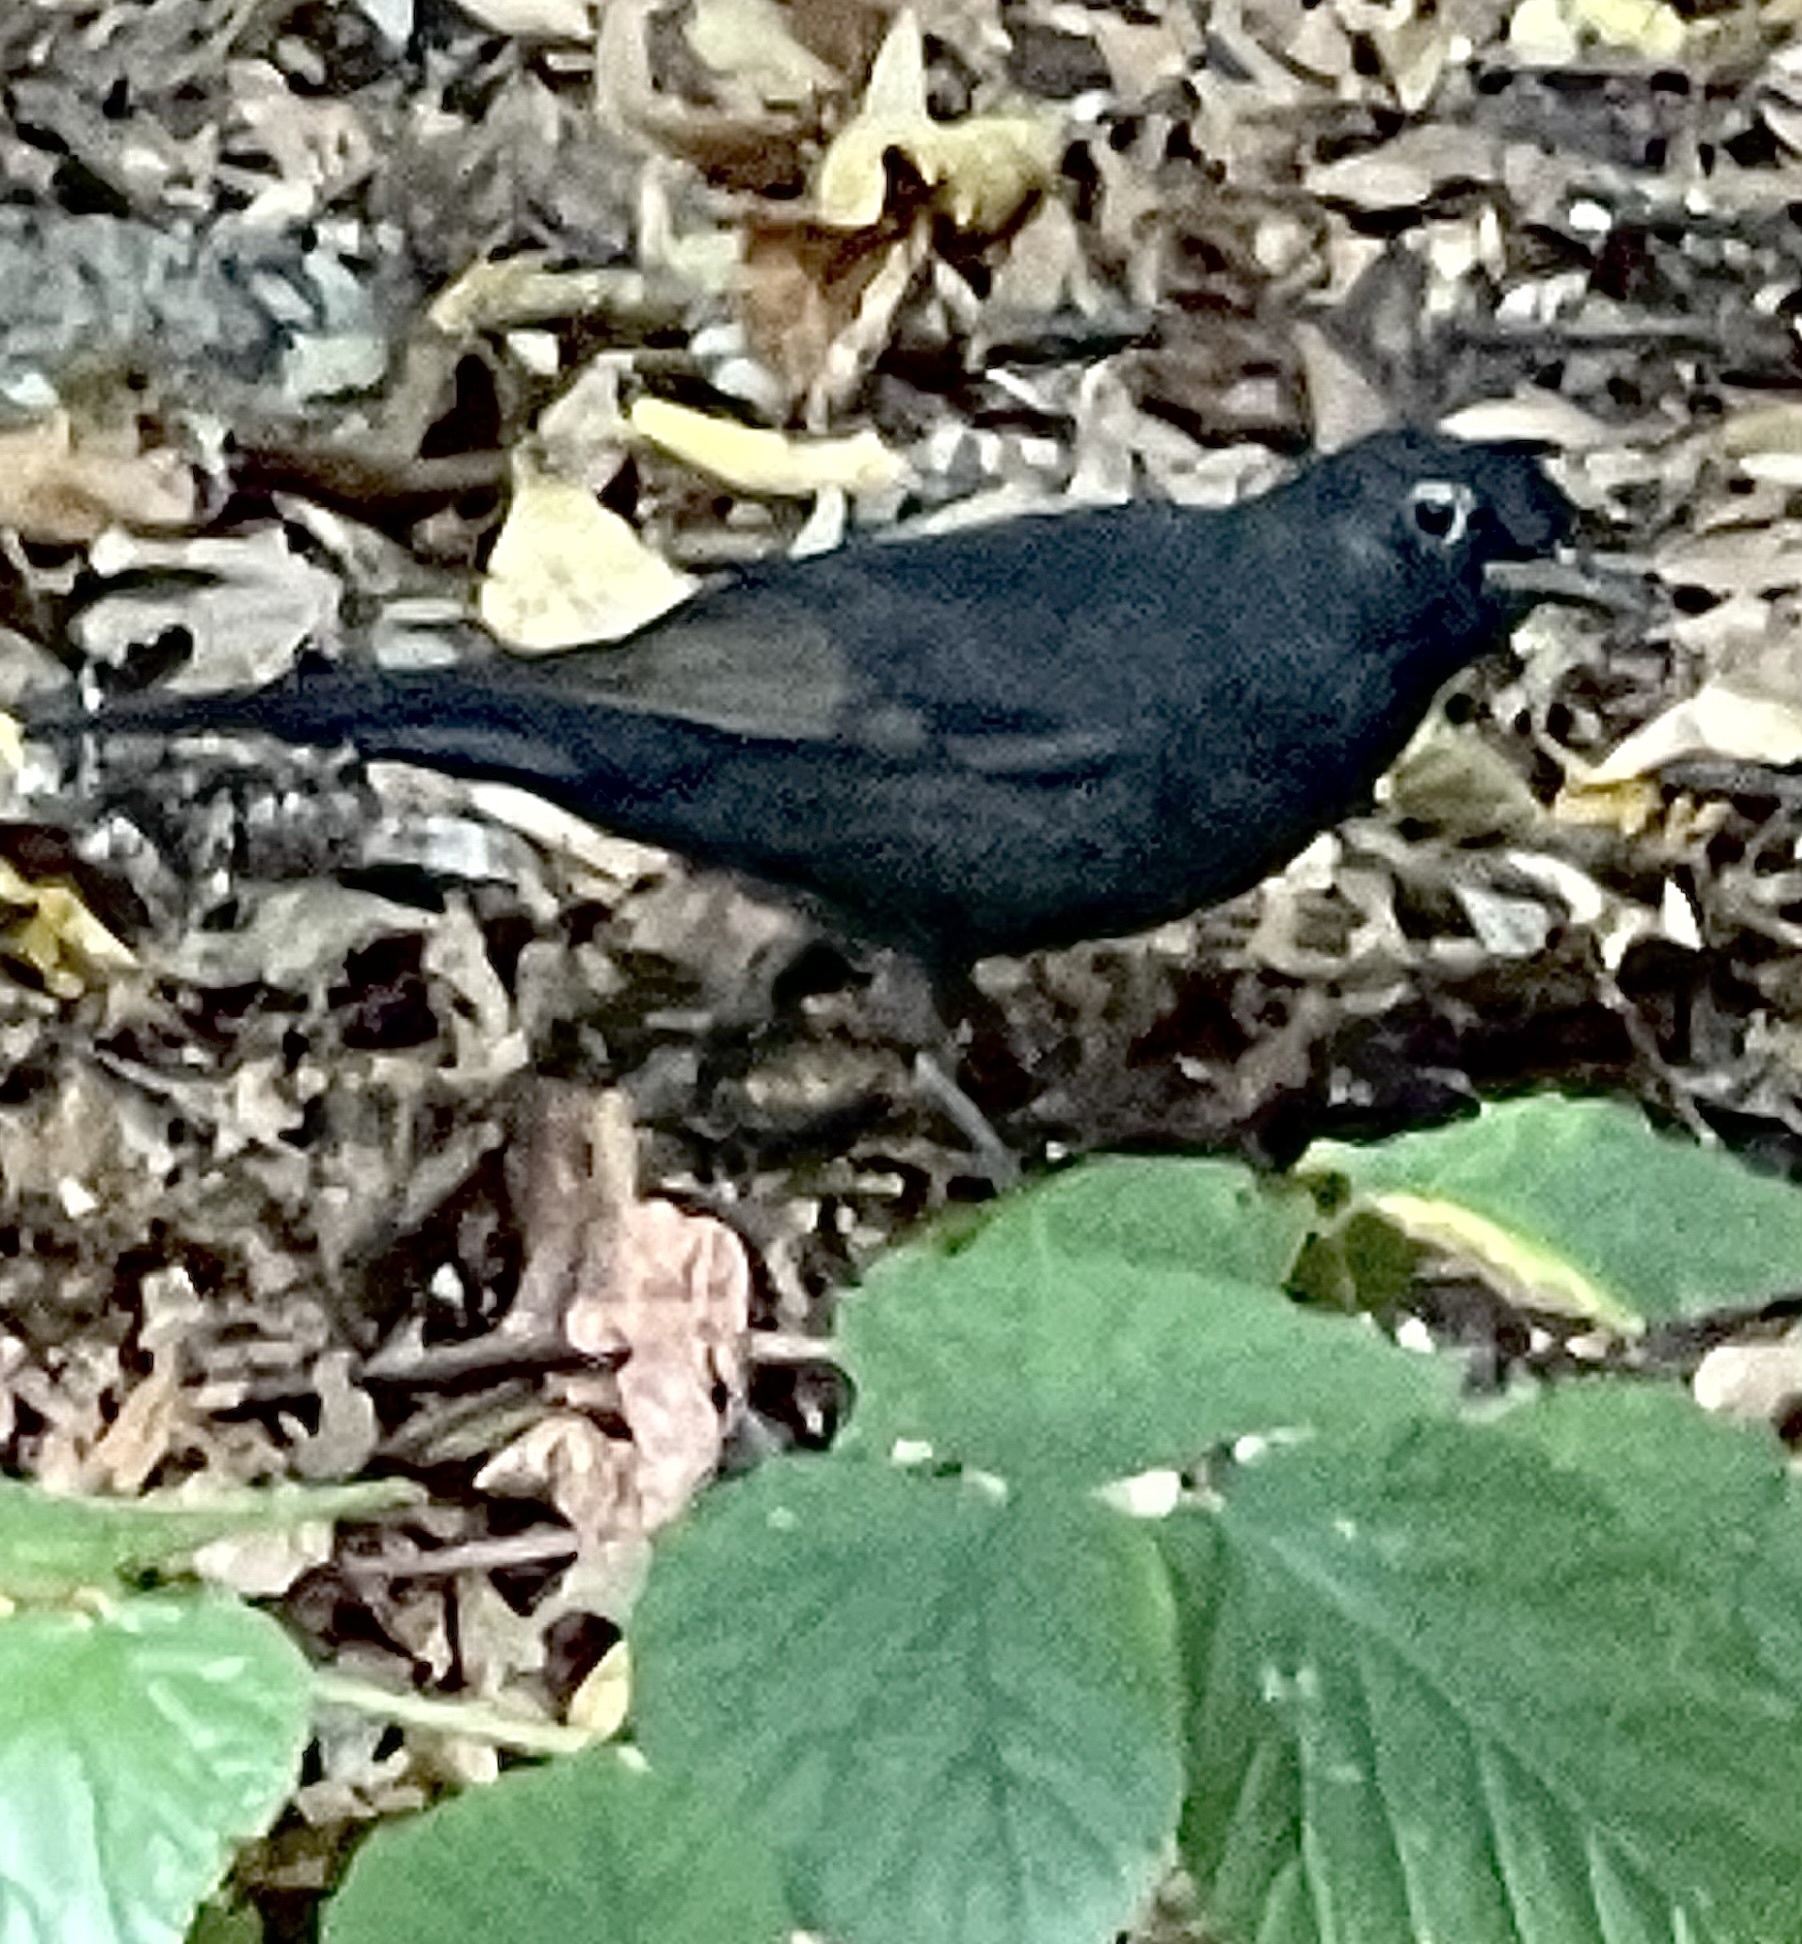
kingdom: Animalia
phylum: Chordata
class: Aves
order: Passeriformes
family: Turdidae
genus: Turdus
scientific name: Turdus merula
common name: Common blackbird
